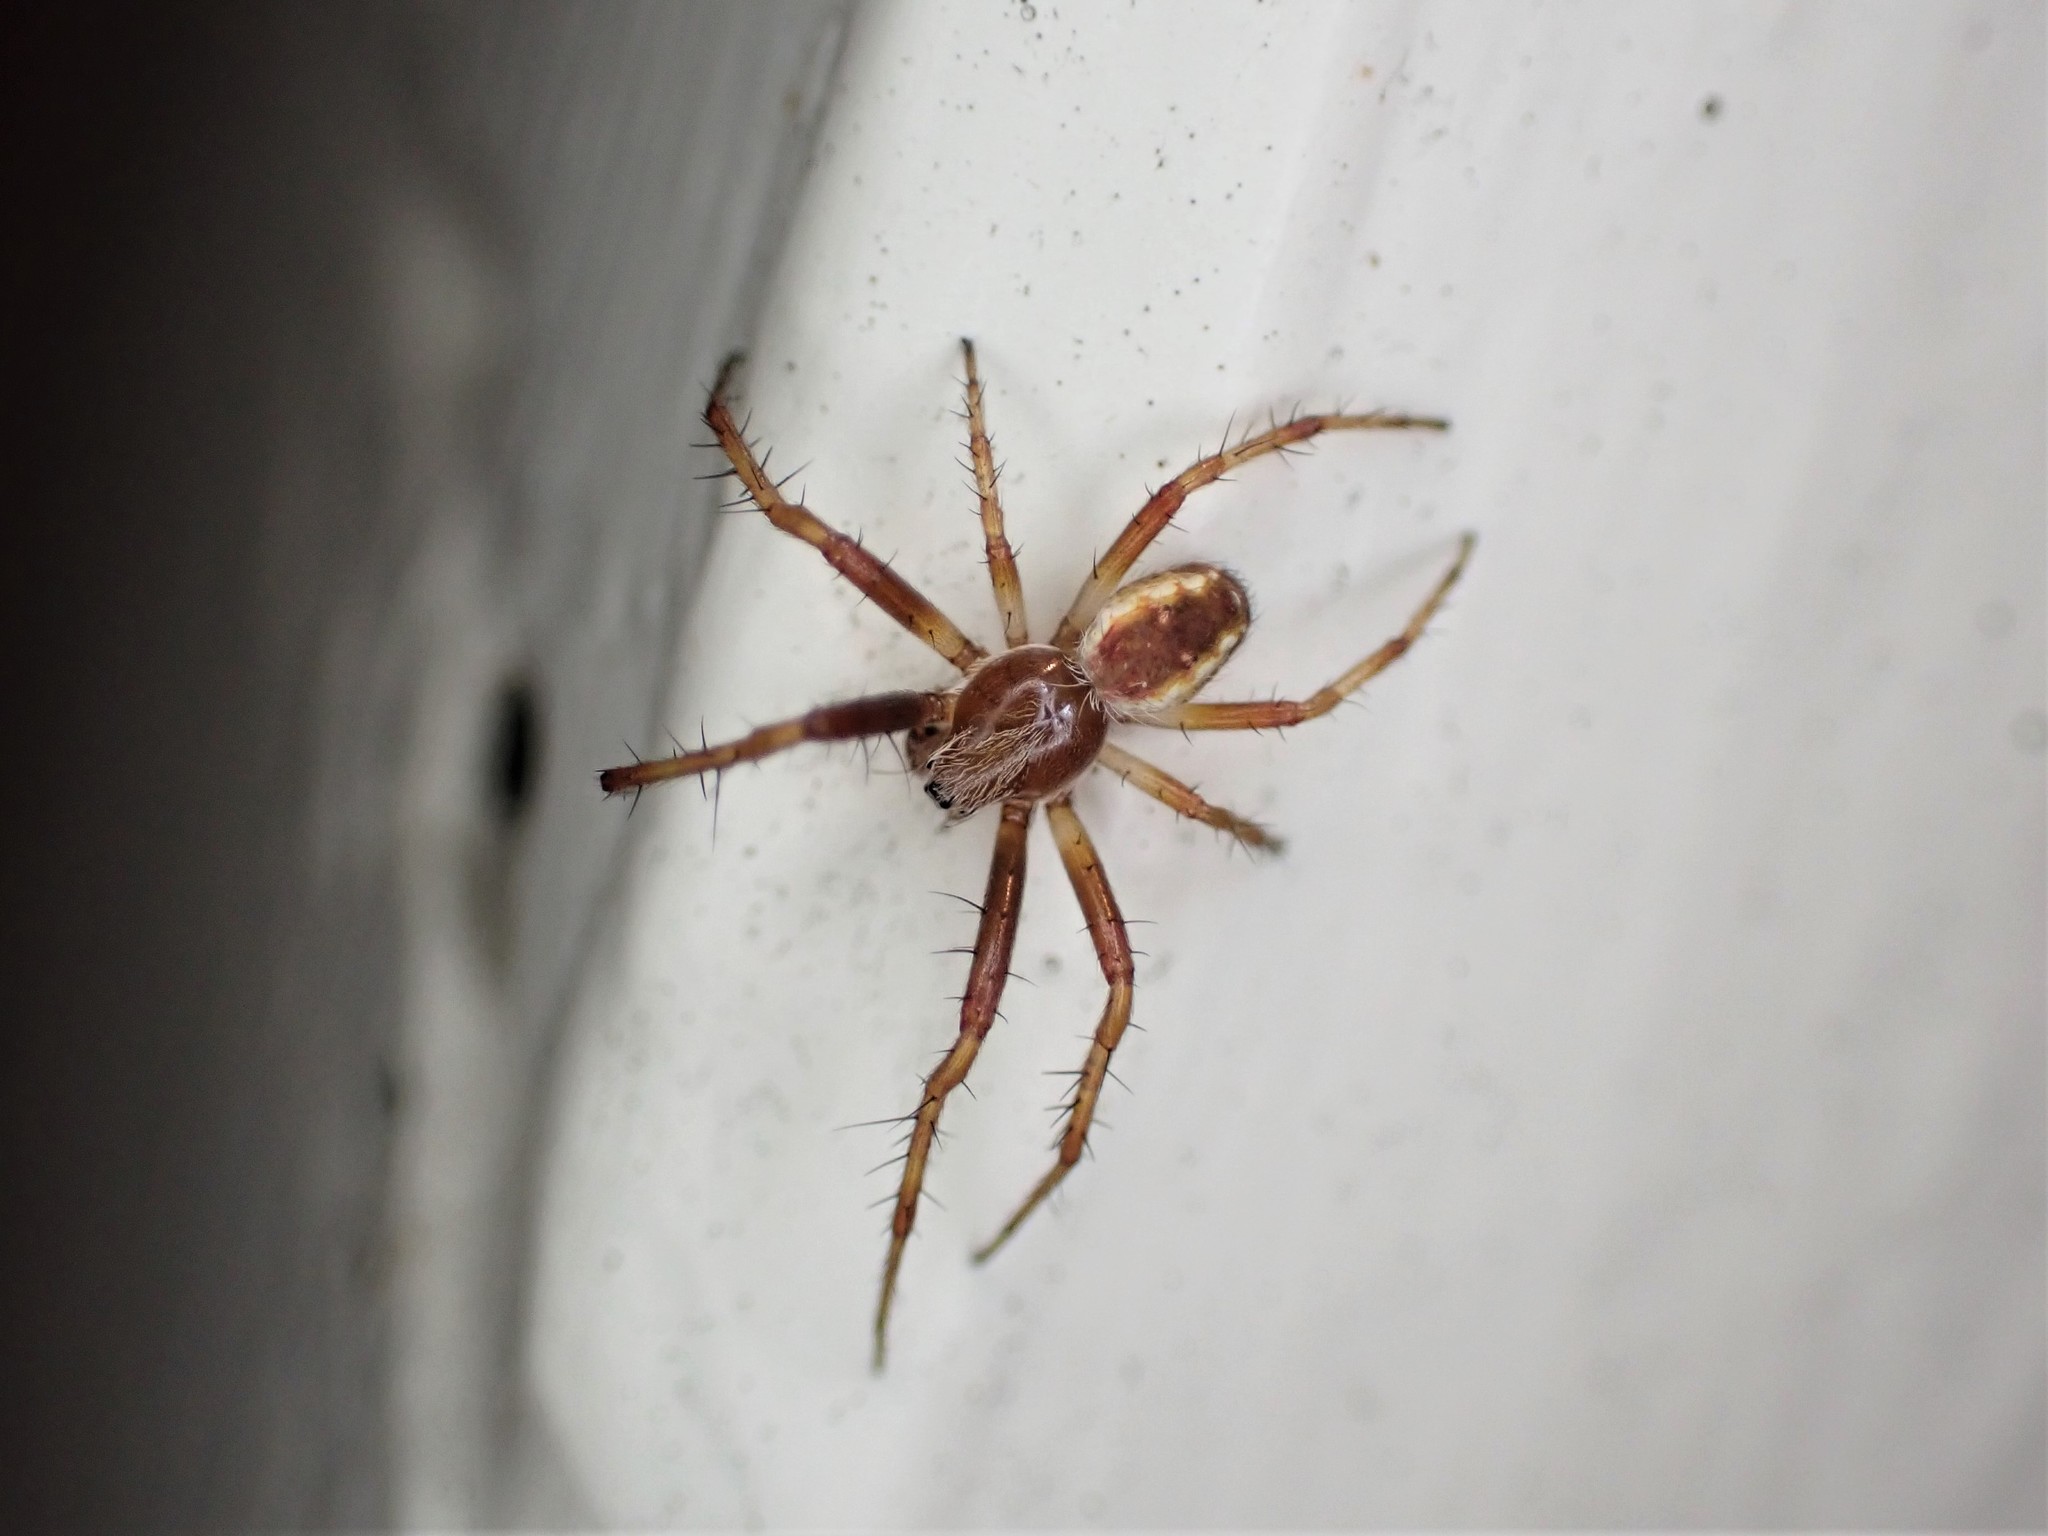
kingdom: Animalia
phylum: Arthropoda
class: Arachnida
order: Araneae
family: Araneidae
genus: Salsa
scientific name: Salsa fuliginata
